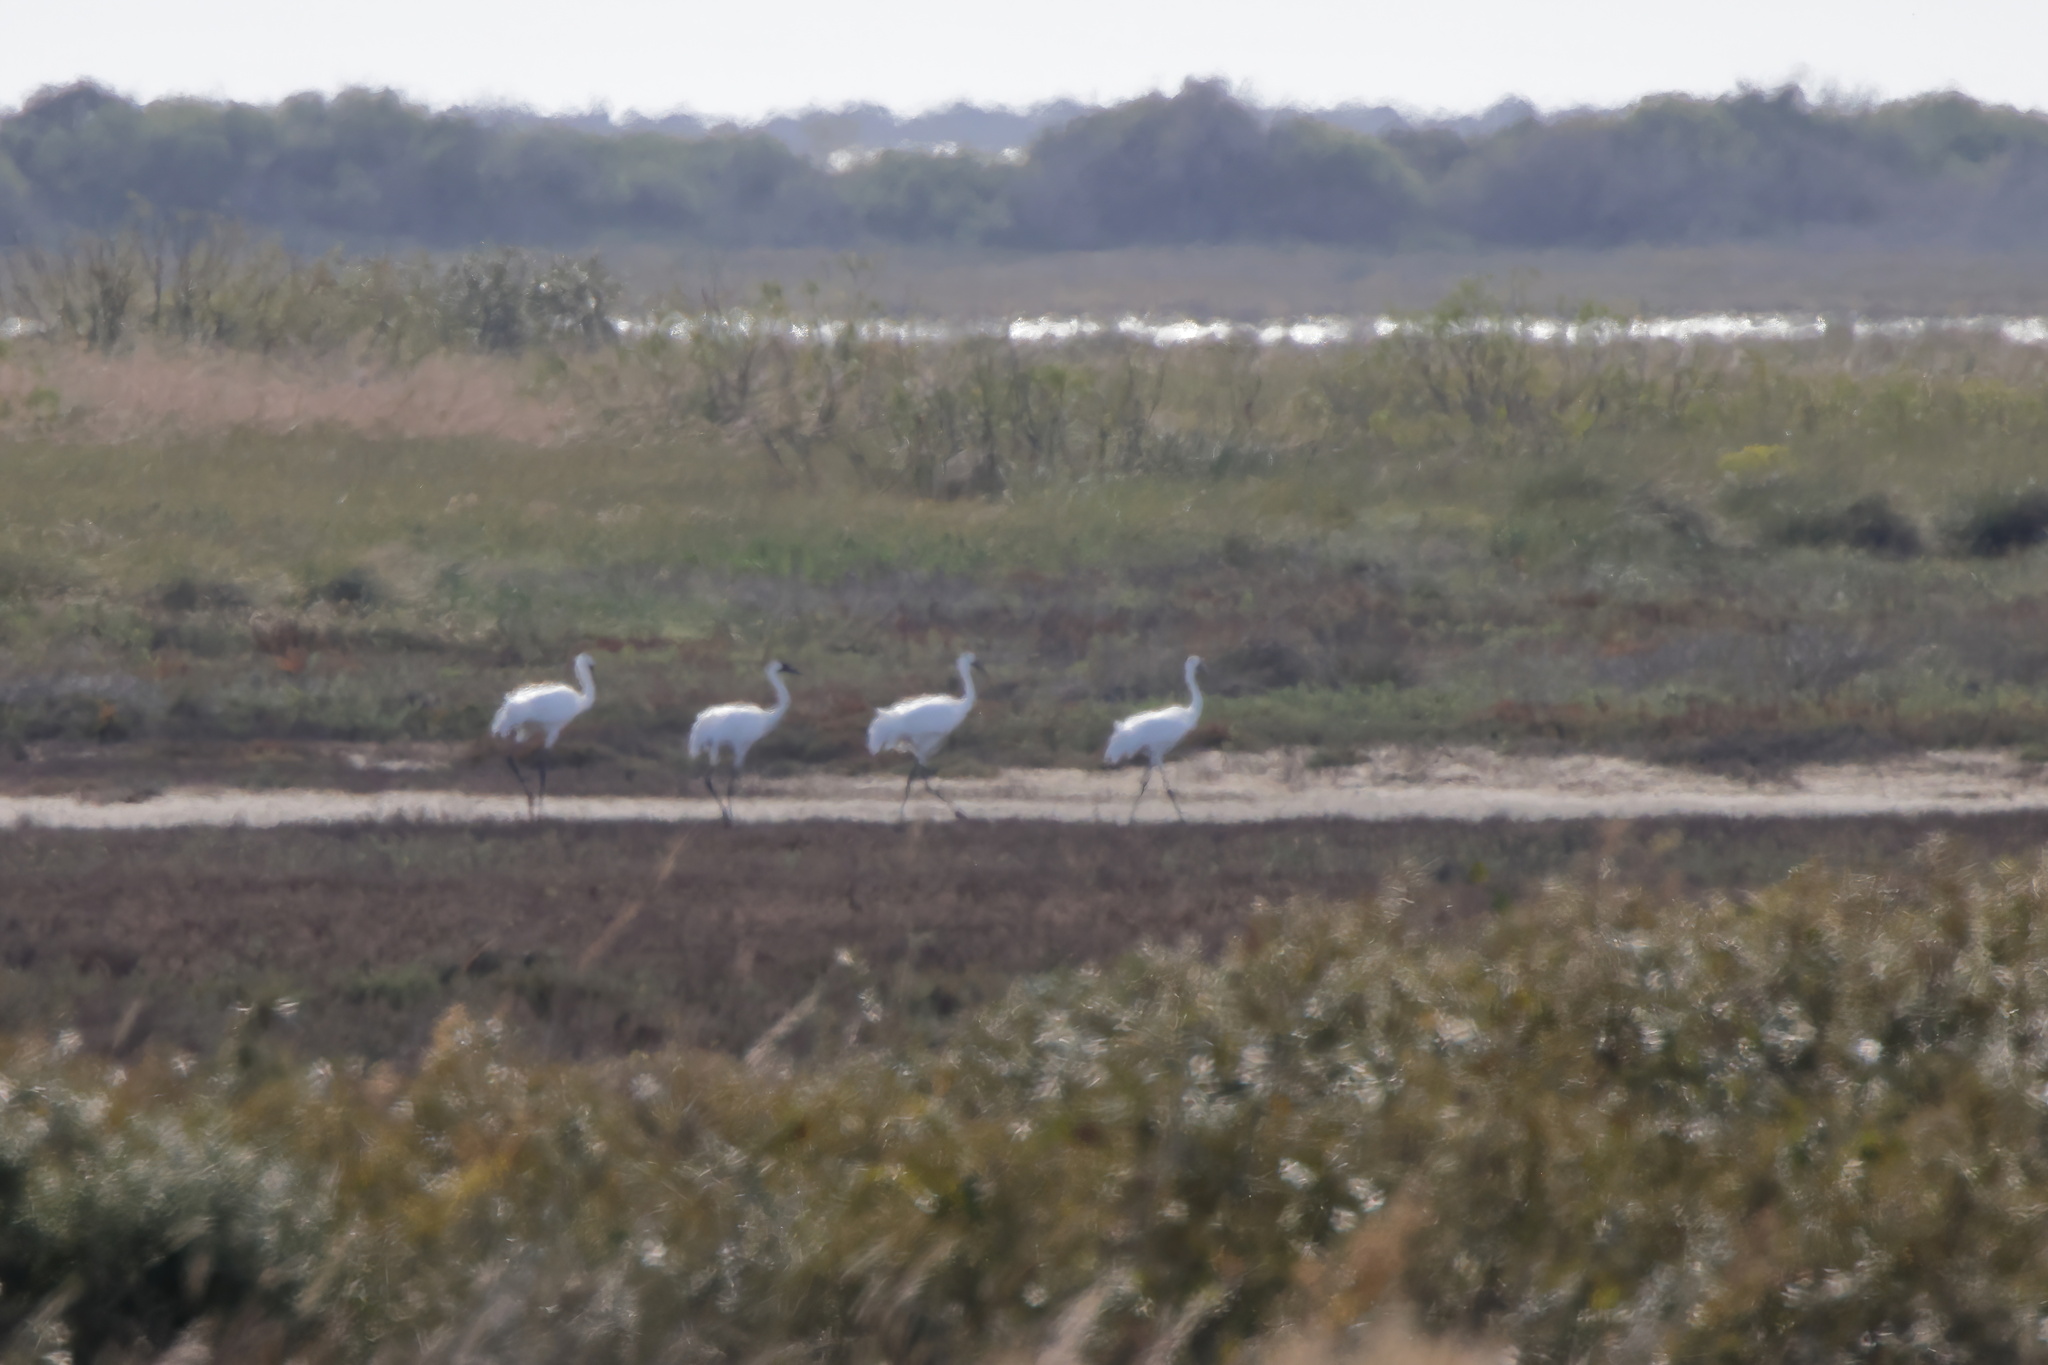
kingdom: Animalia
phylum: Chordata
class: Aves
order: Gruiformes
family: Gruidae
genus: Grus
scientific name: Grus americana
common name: Whooping crane
